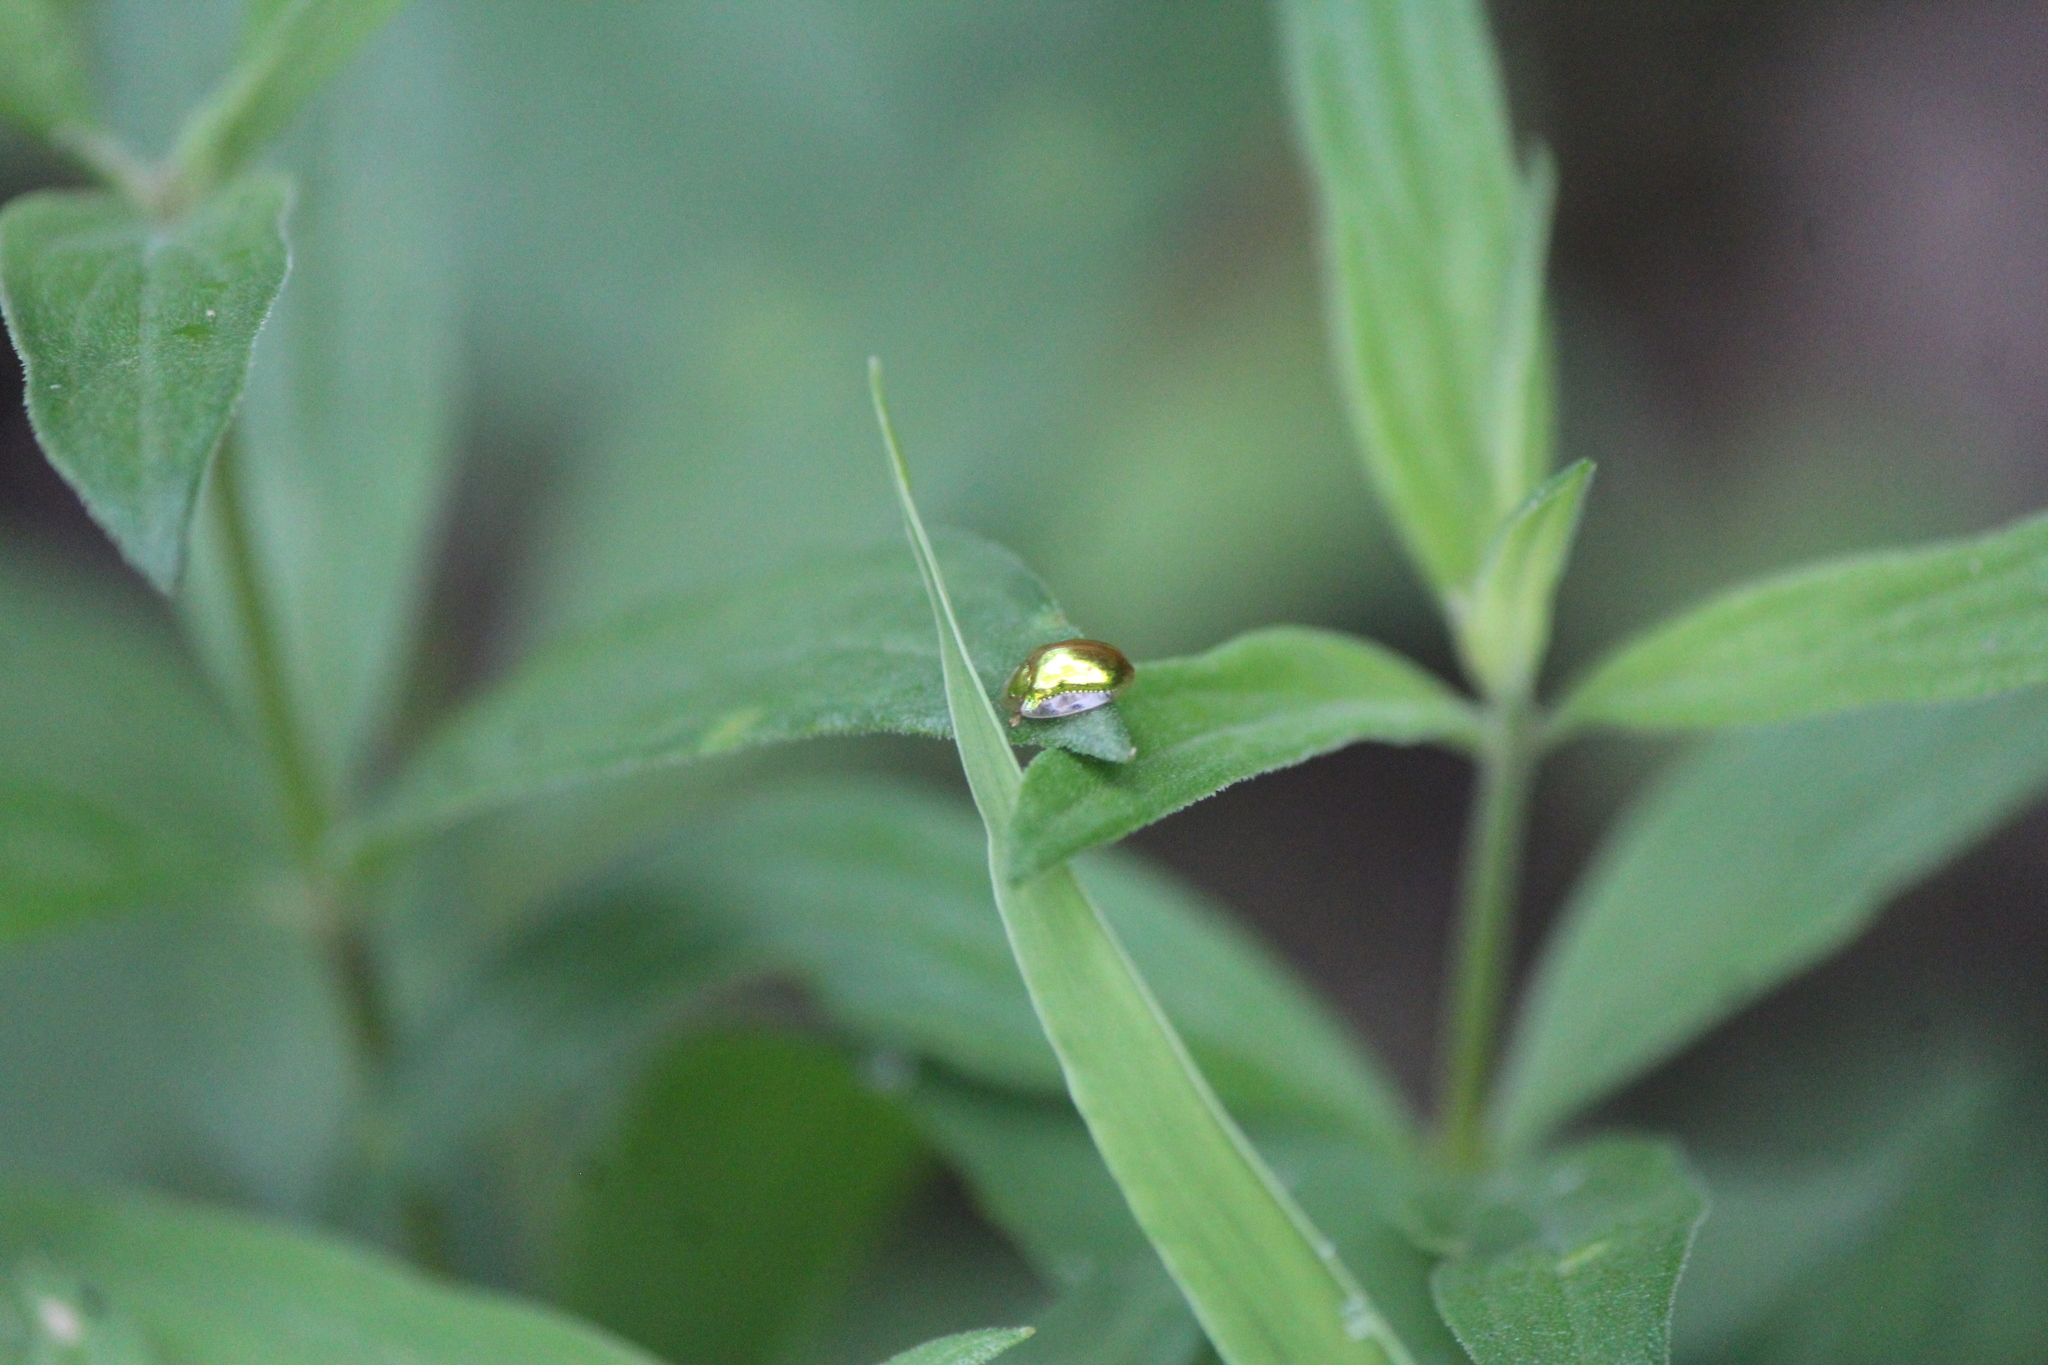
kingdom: Animalia
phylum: Arthropoda
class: Insecta
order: Coleoptera
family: Chrysomelidae
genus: Charidotella
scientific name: Charidotella succinea
